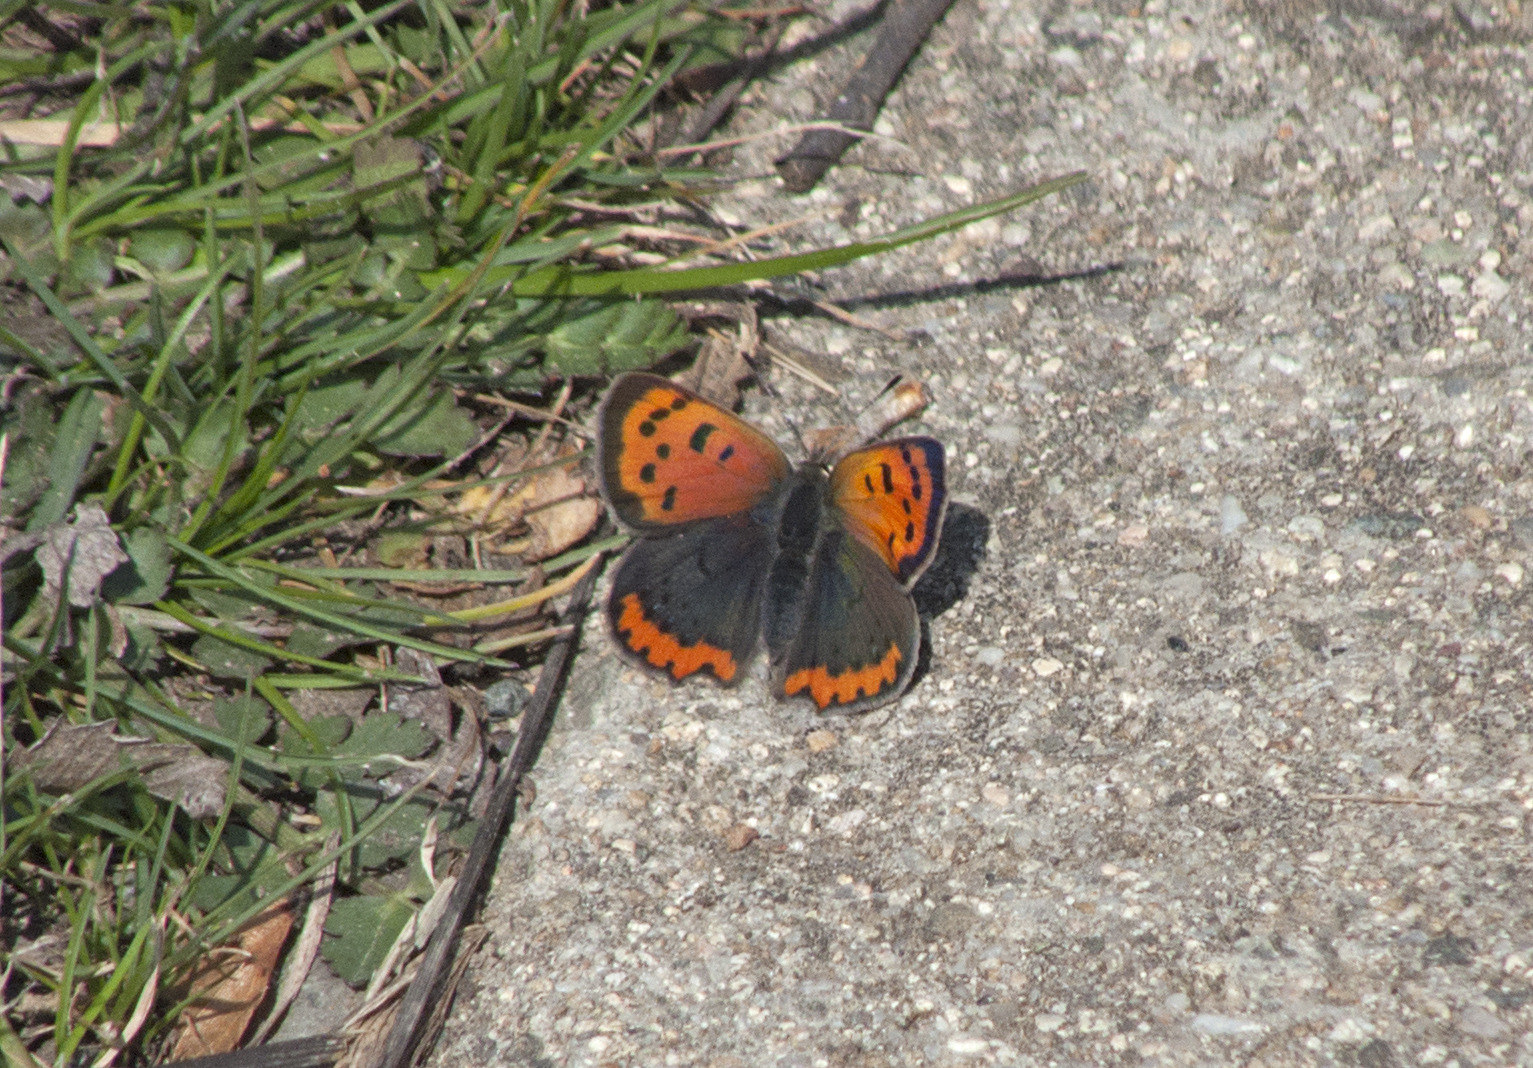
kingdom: Animalia
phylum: Arthropoda
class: Insecta
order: Lepidoptera
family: Lycaenidae
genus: Lycaena
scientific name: Lycaena phlaeas
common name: Small copper
